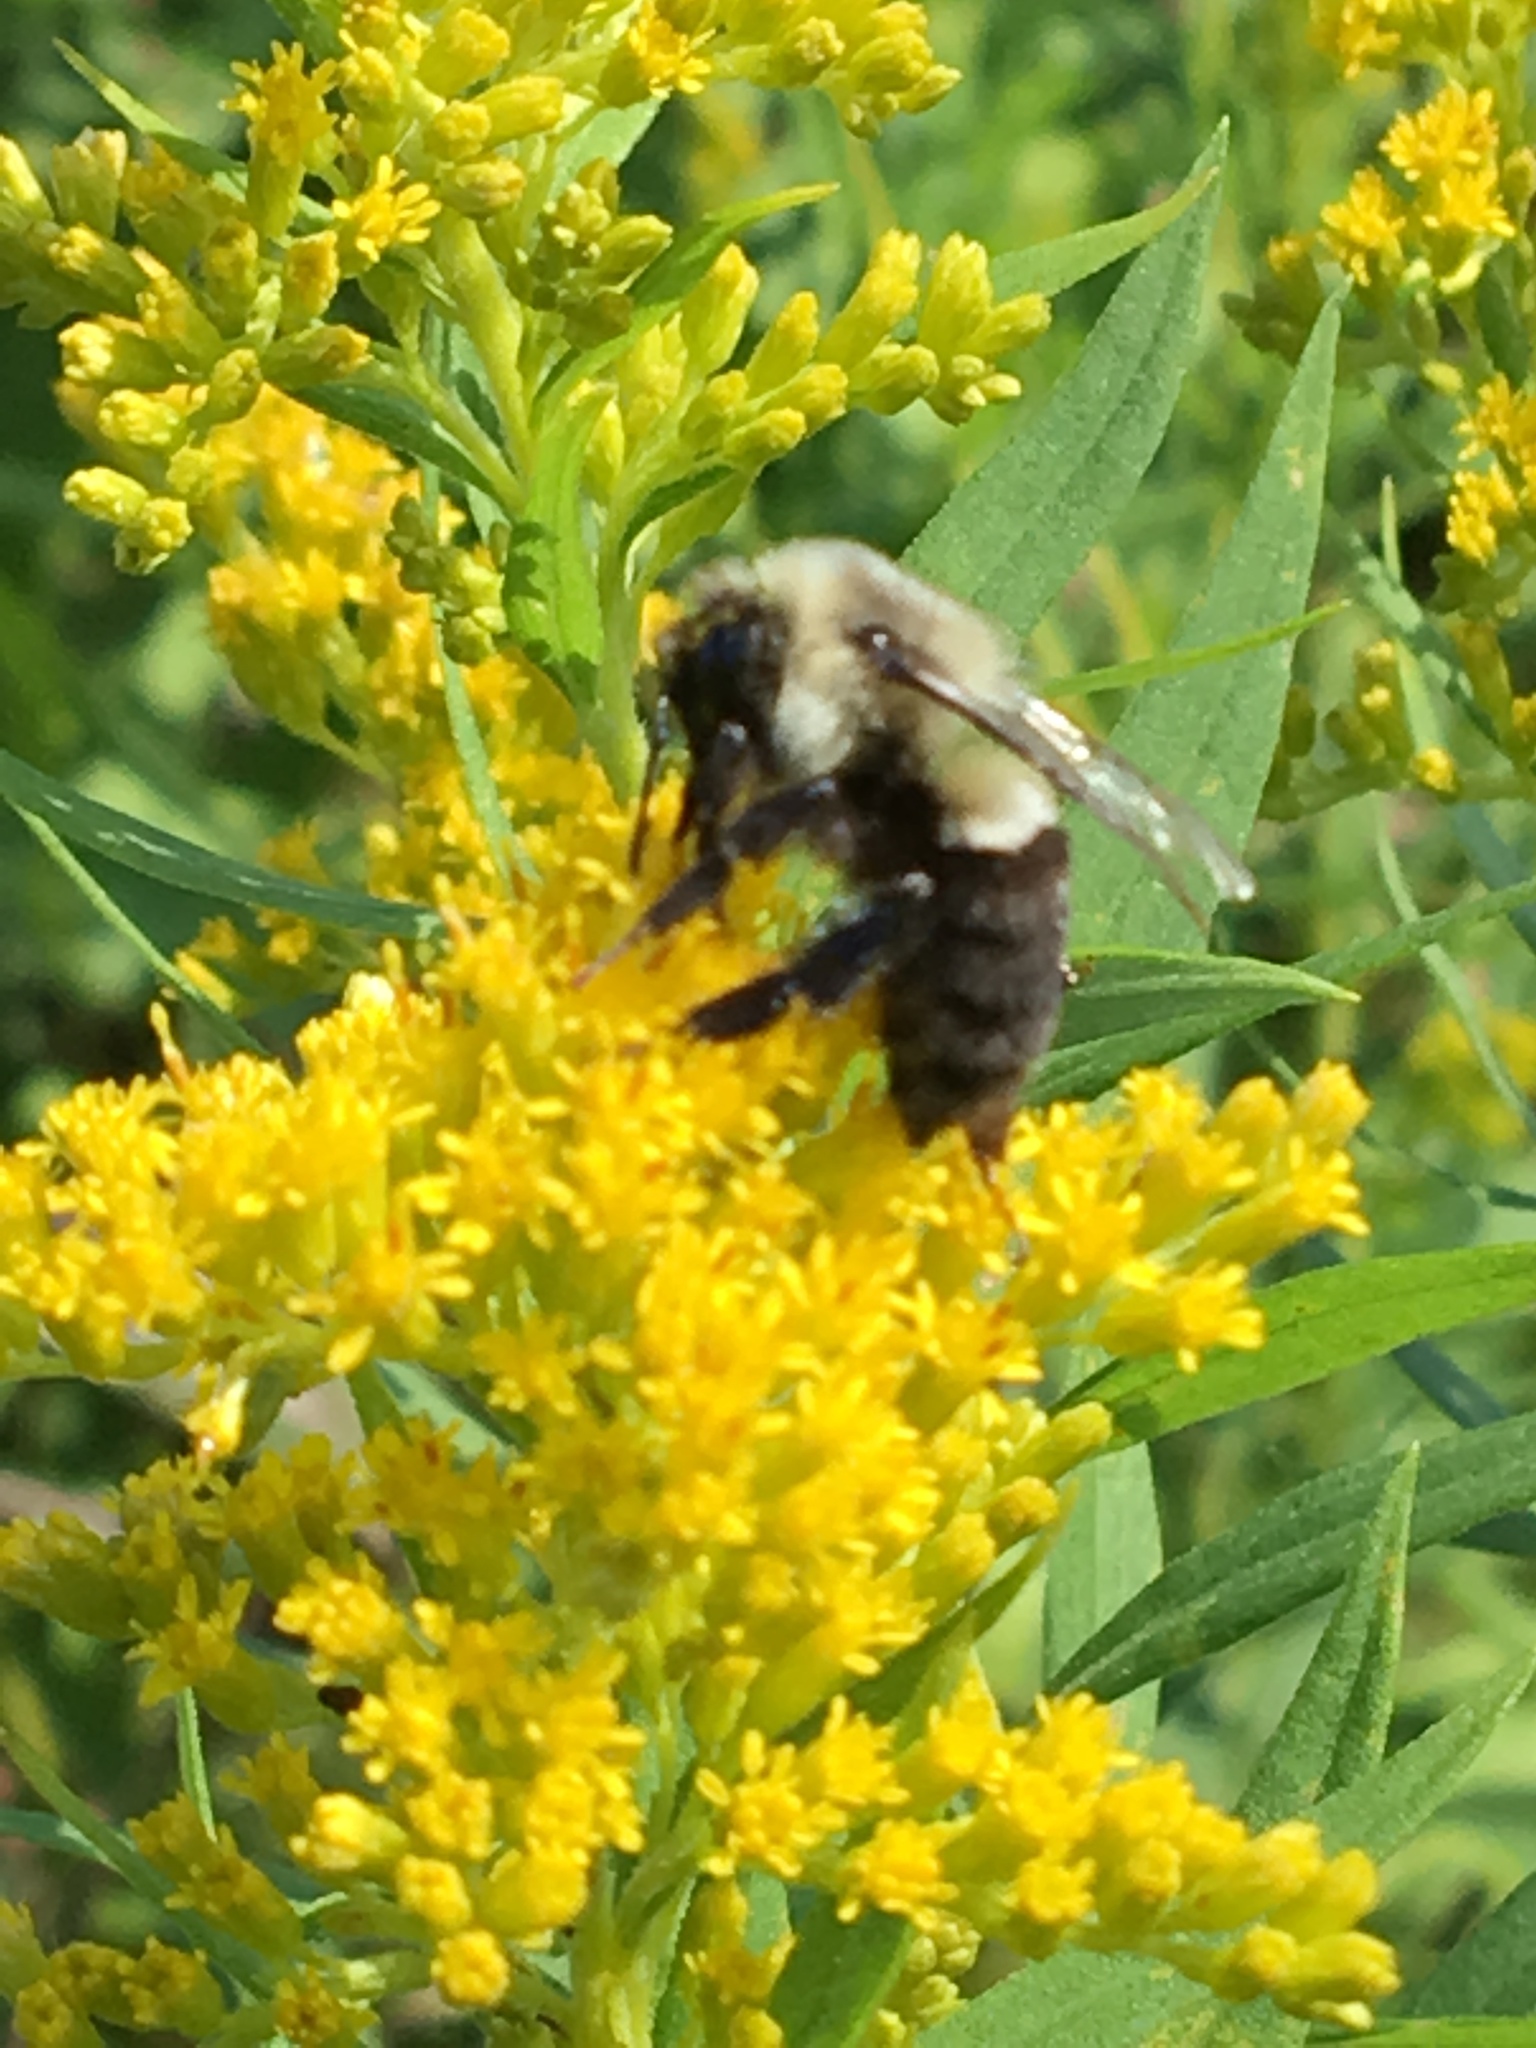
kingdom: Animalia
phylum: Arthropoda
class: Insecta
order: Hymenoptera
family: Apidae
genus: Bombus
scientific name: Bombus impatiens
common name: Common eastern bumble bee
